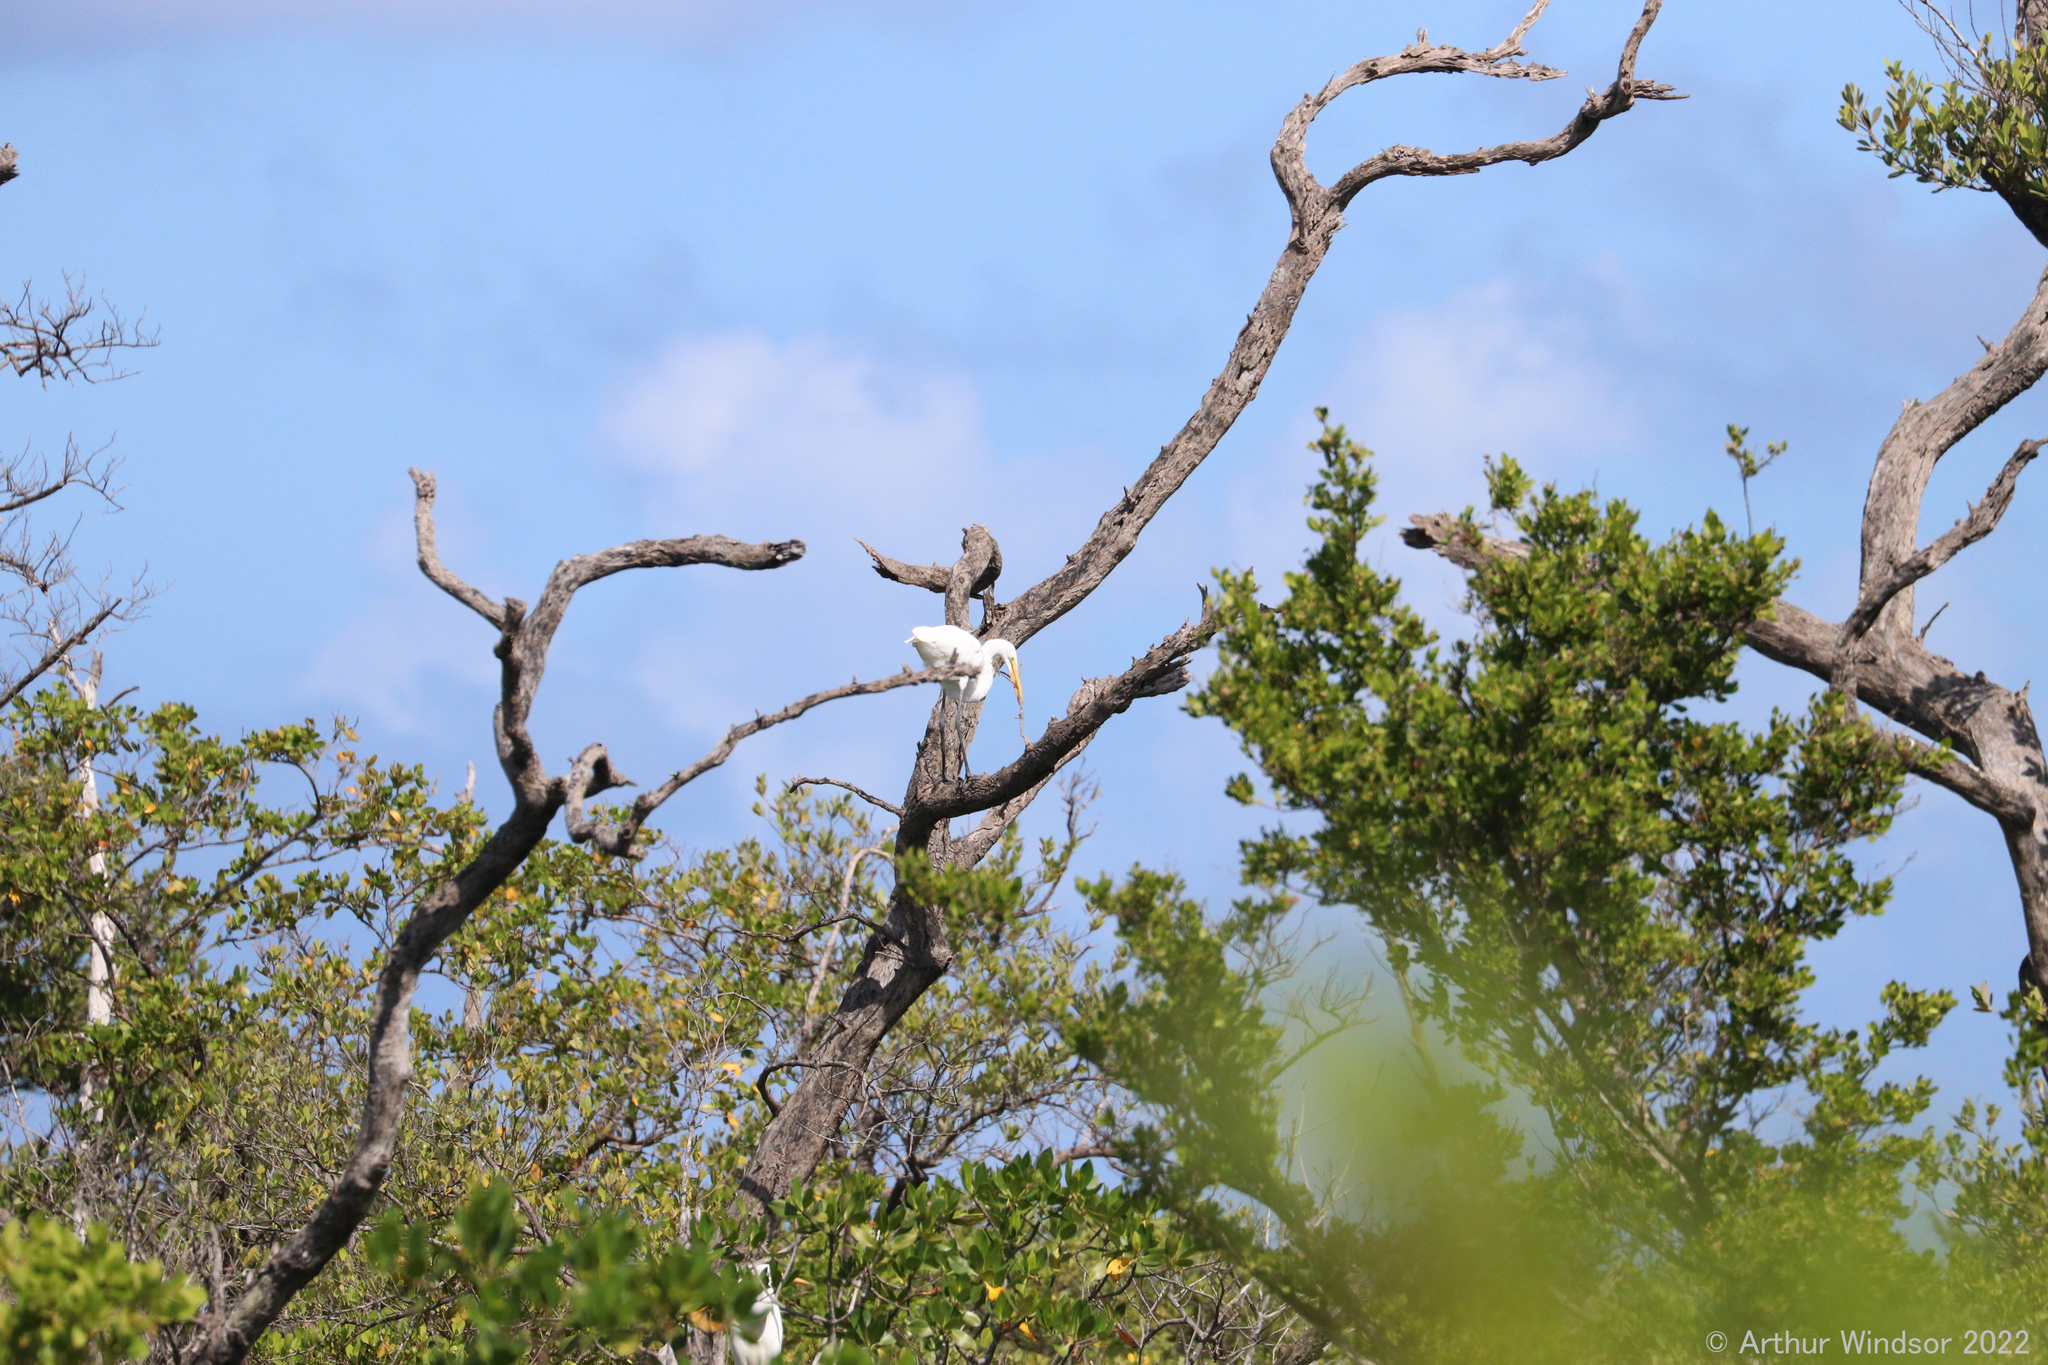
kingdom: Animalia
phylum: Chordata
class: Aves
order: Pelecaniformes
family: Ardeidae
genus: Ardea
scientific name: Ardea alba
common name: Great egret
